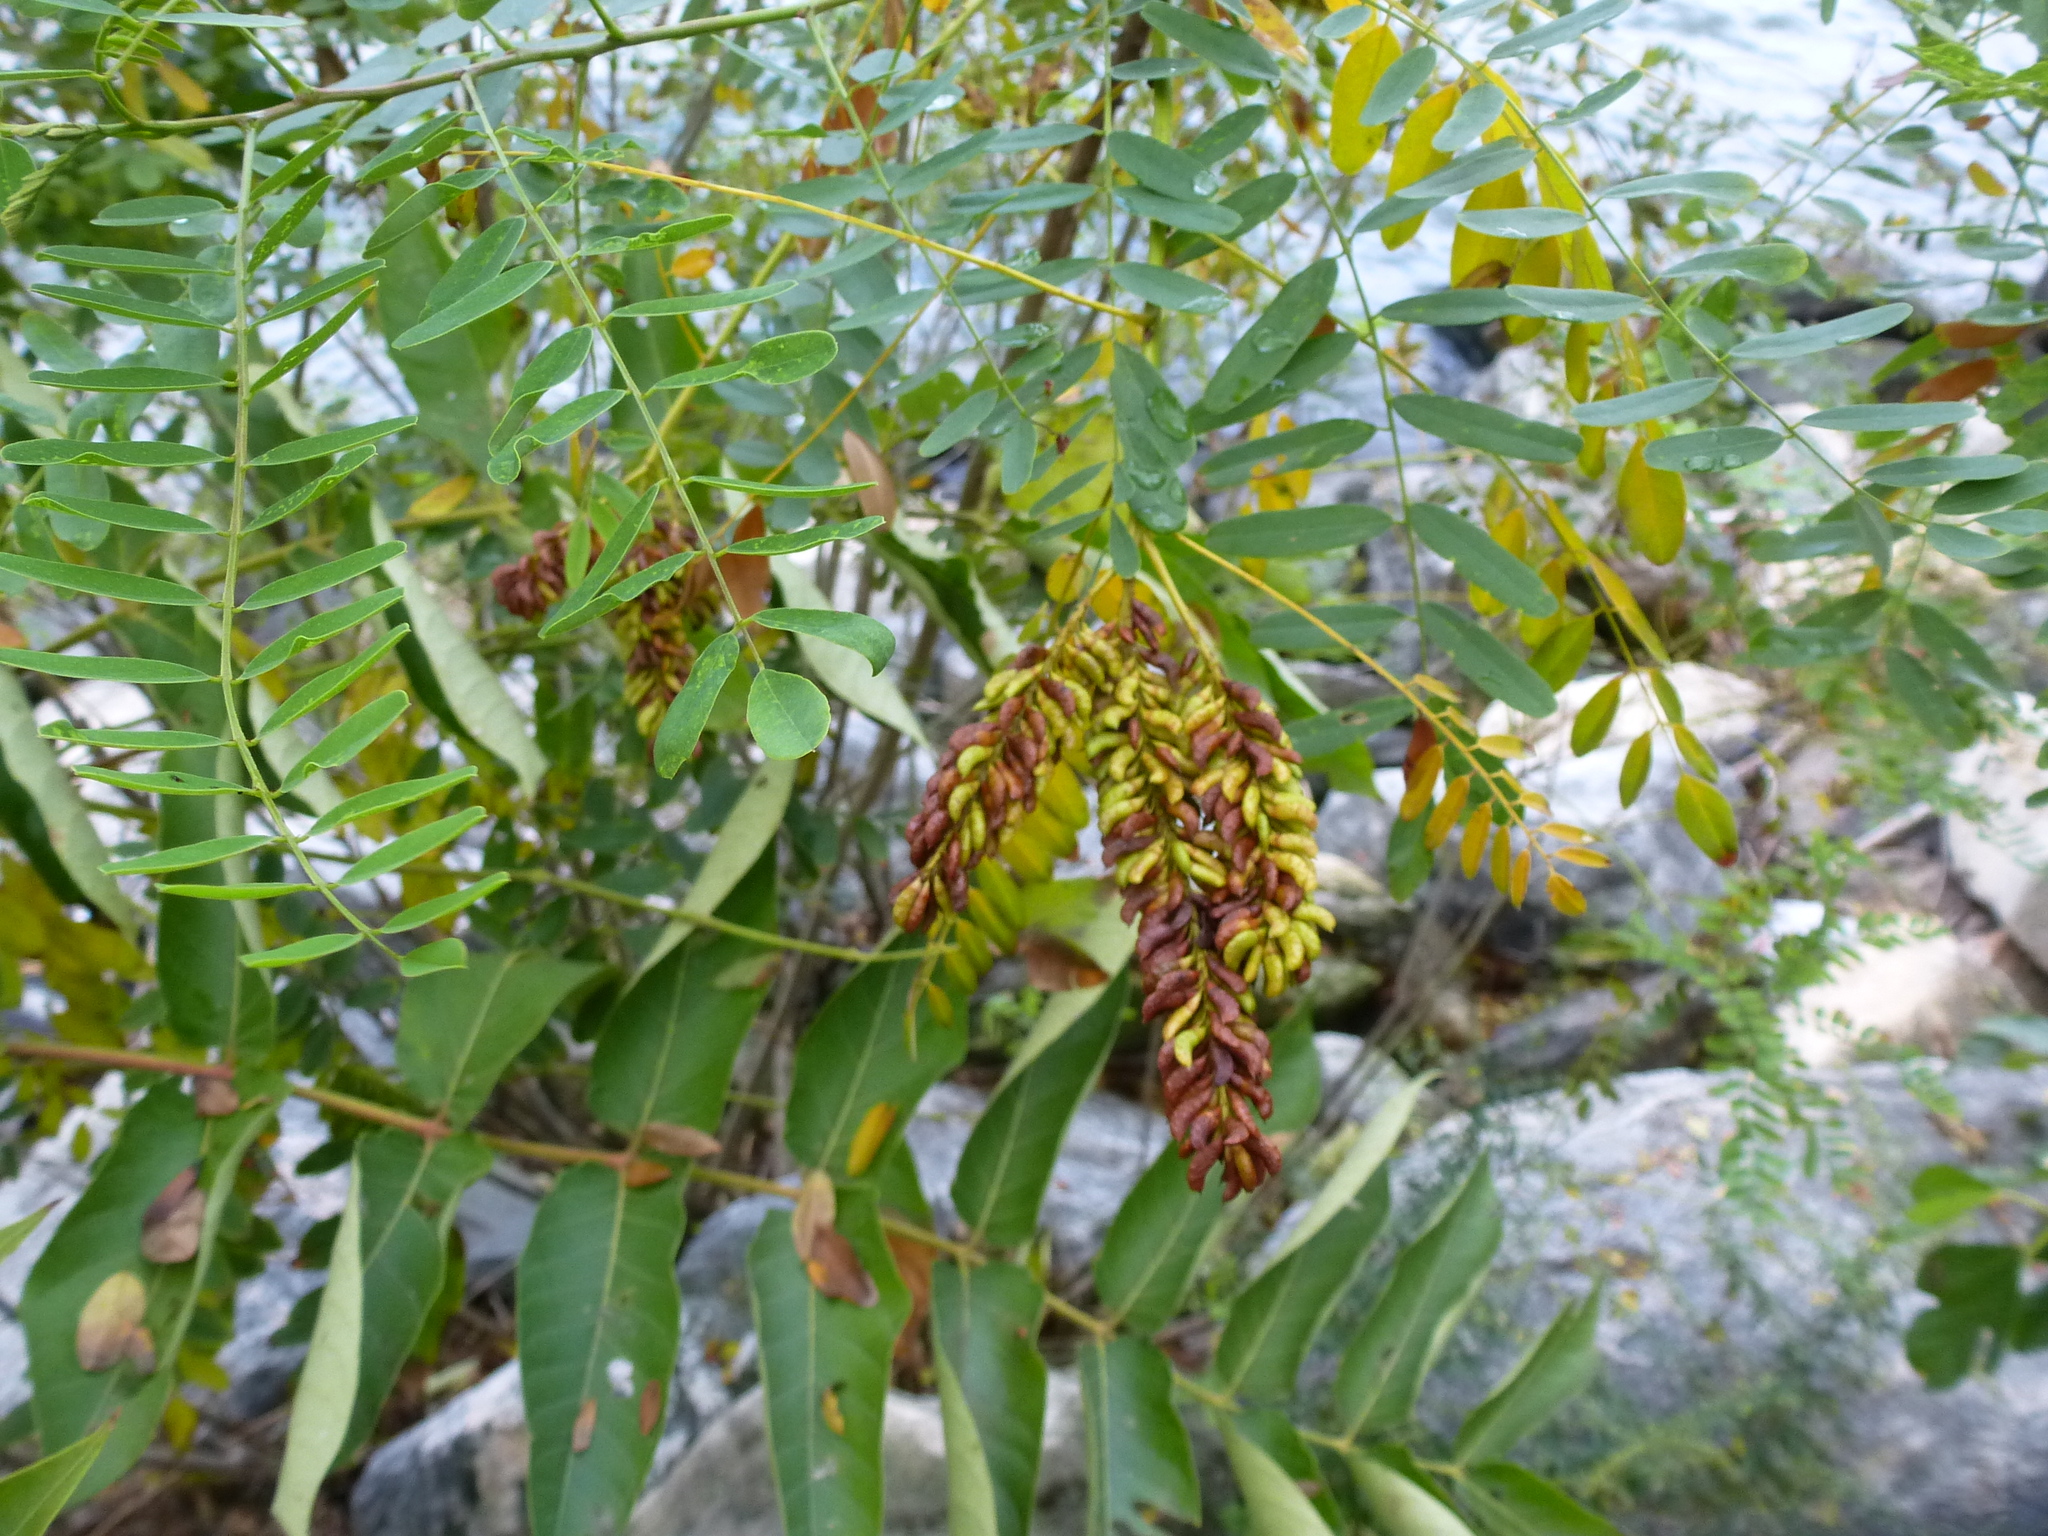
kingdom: Plantae
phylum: Tracheophyta
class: Magnoliopsida
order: Fabales
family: Fabaceae
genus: Amorpha
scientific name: Amorpha fruticosa
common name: False indigo
